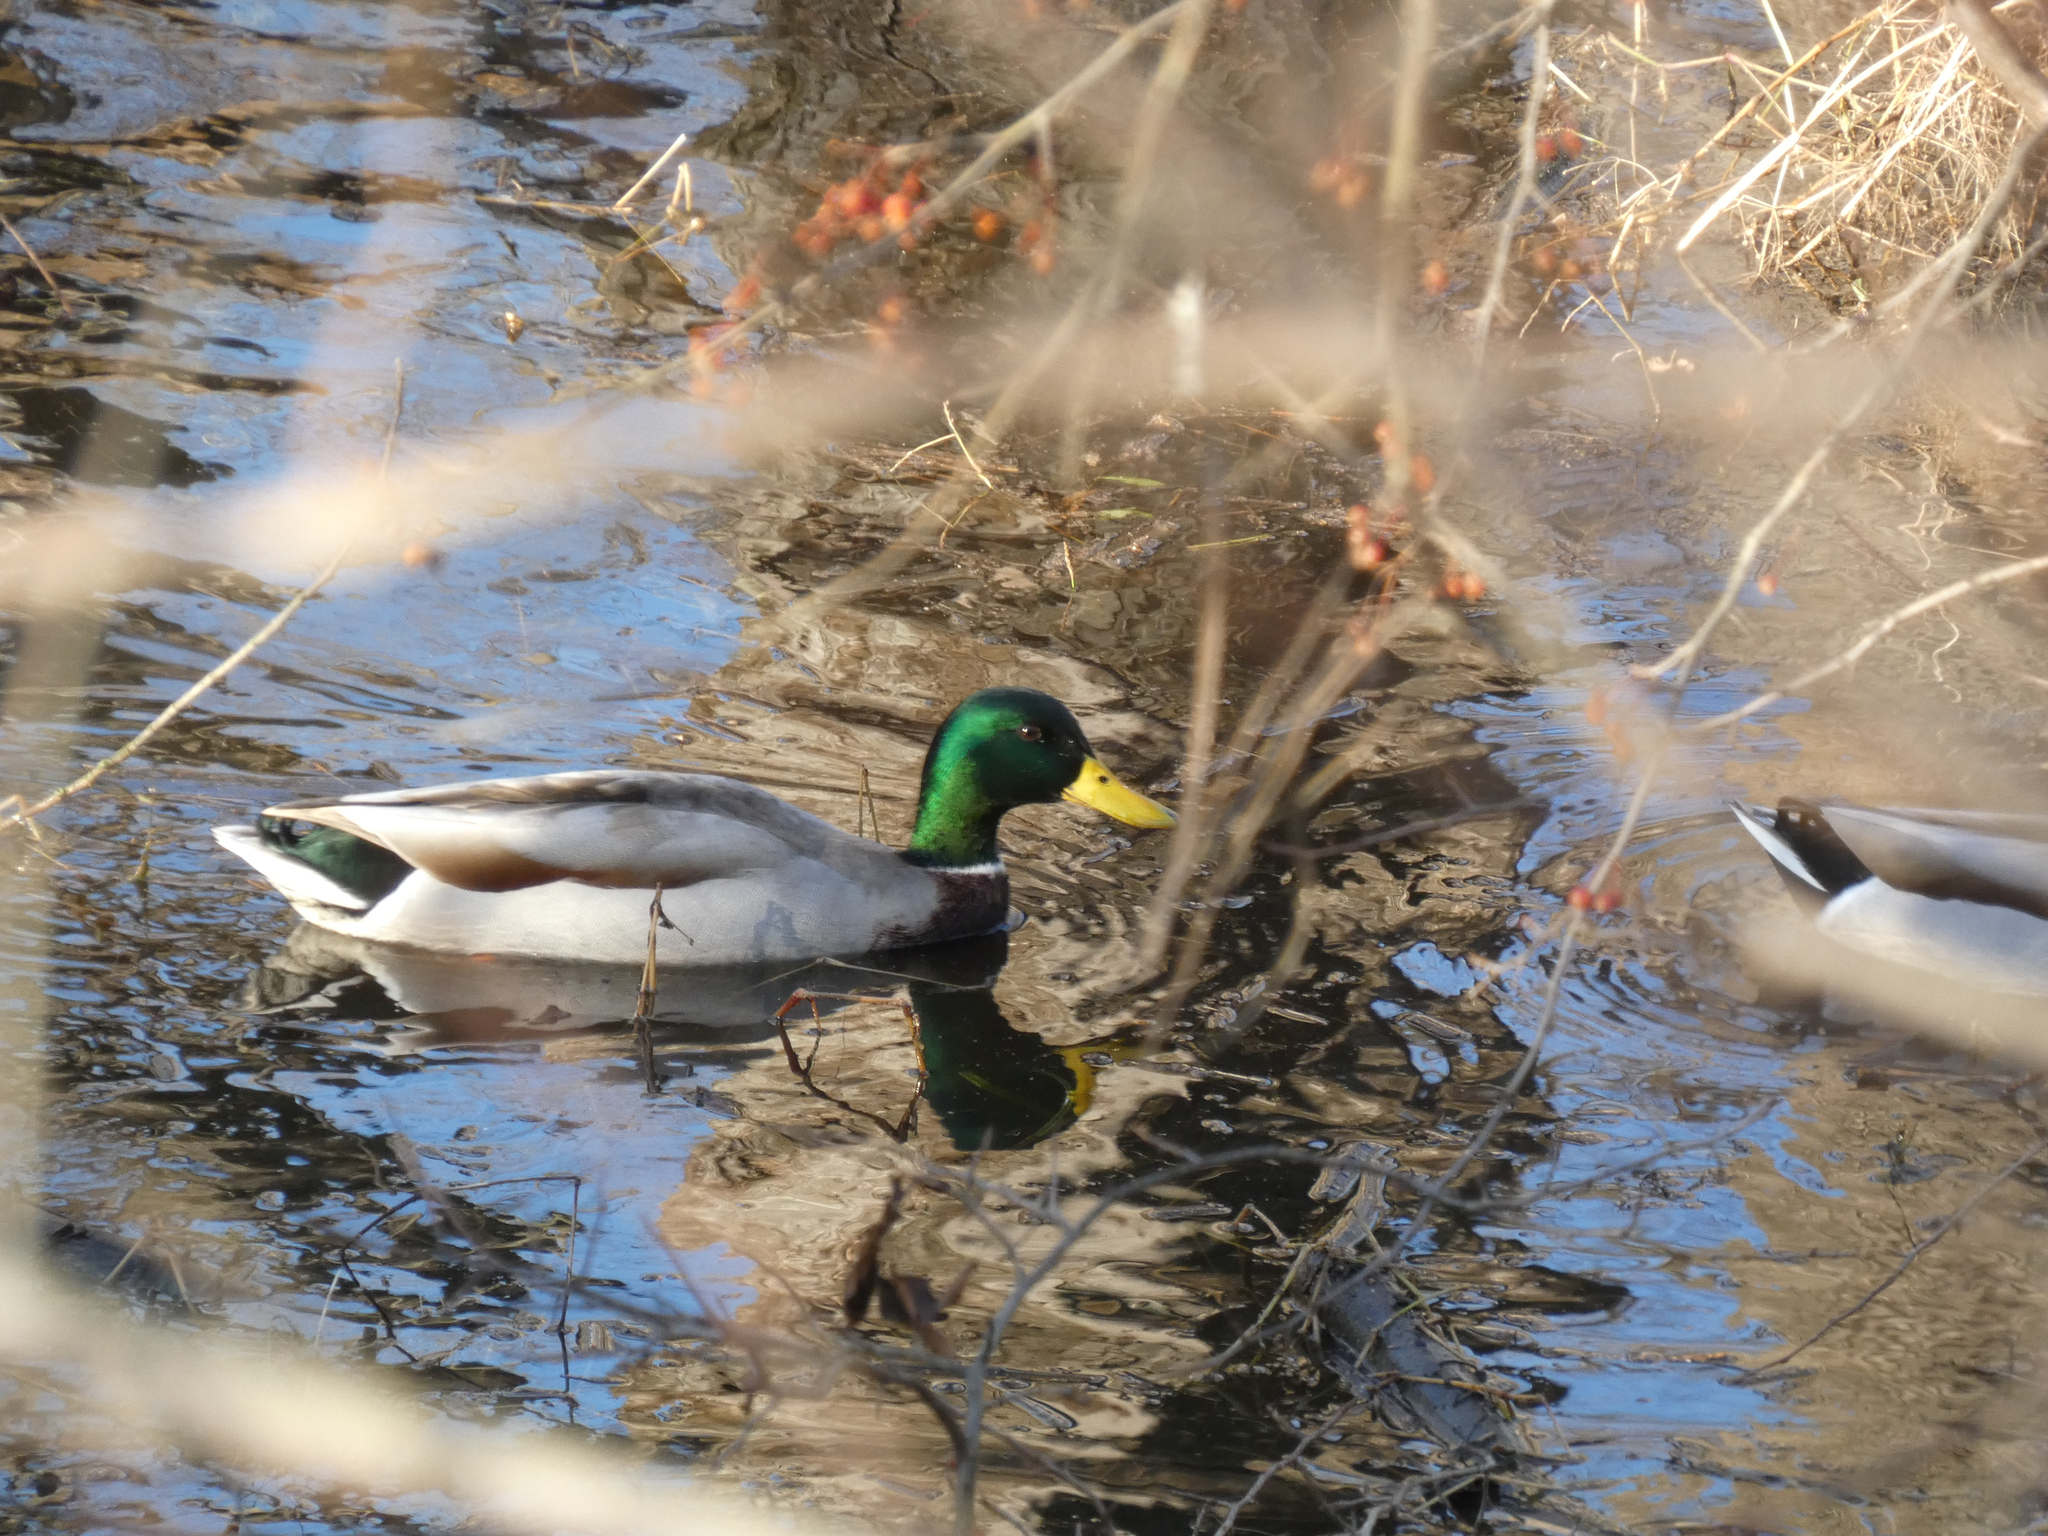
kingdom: Animalia
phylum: Chordata
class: Aves
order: Anseriformes
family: Anatidae
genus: Anas
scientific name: Anas platyrhynchos
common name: Mallard
